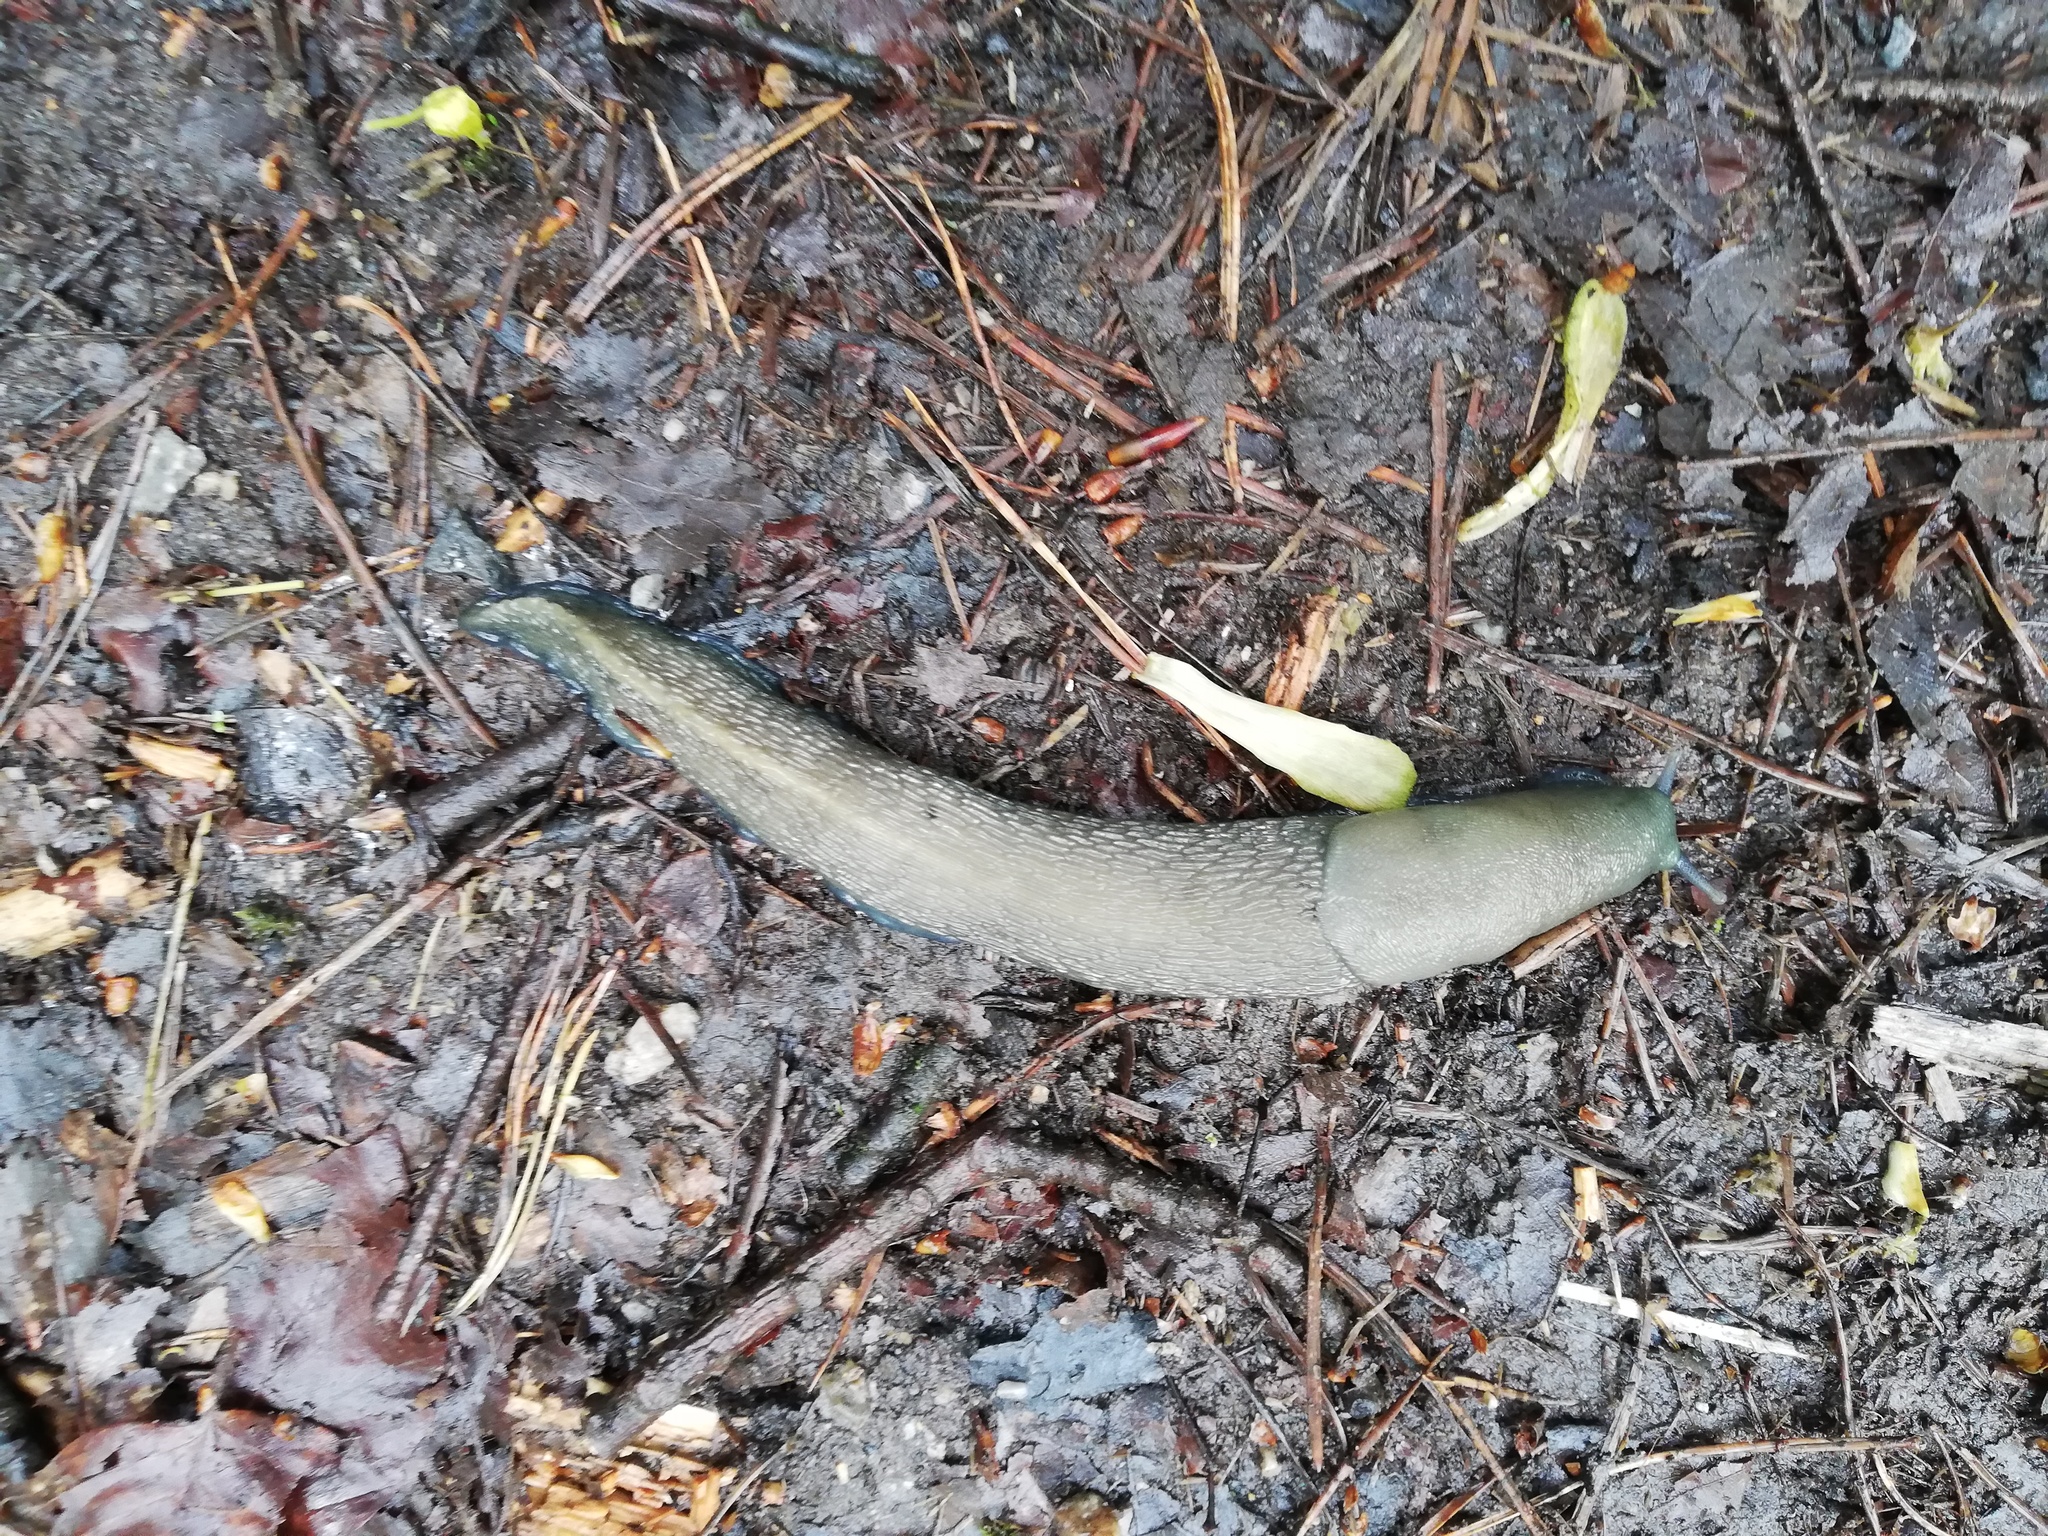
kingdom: Animalia
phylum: Mollusca
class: Gastropoda
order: Stylommatophora
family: Limacidae
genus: Limax
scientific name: Limax cinereoniger
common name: Ash-black slug
